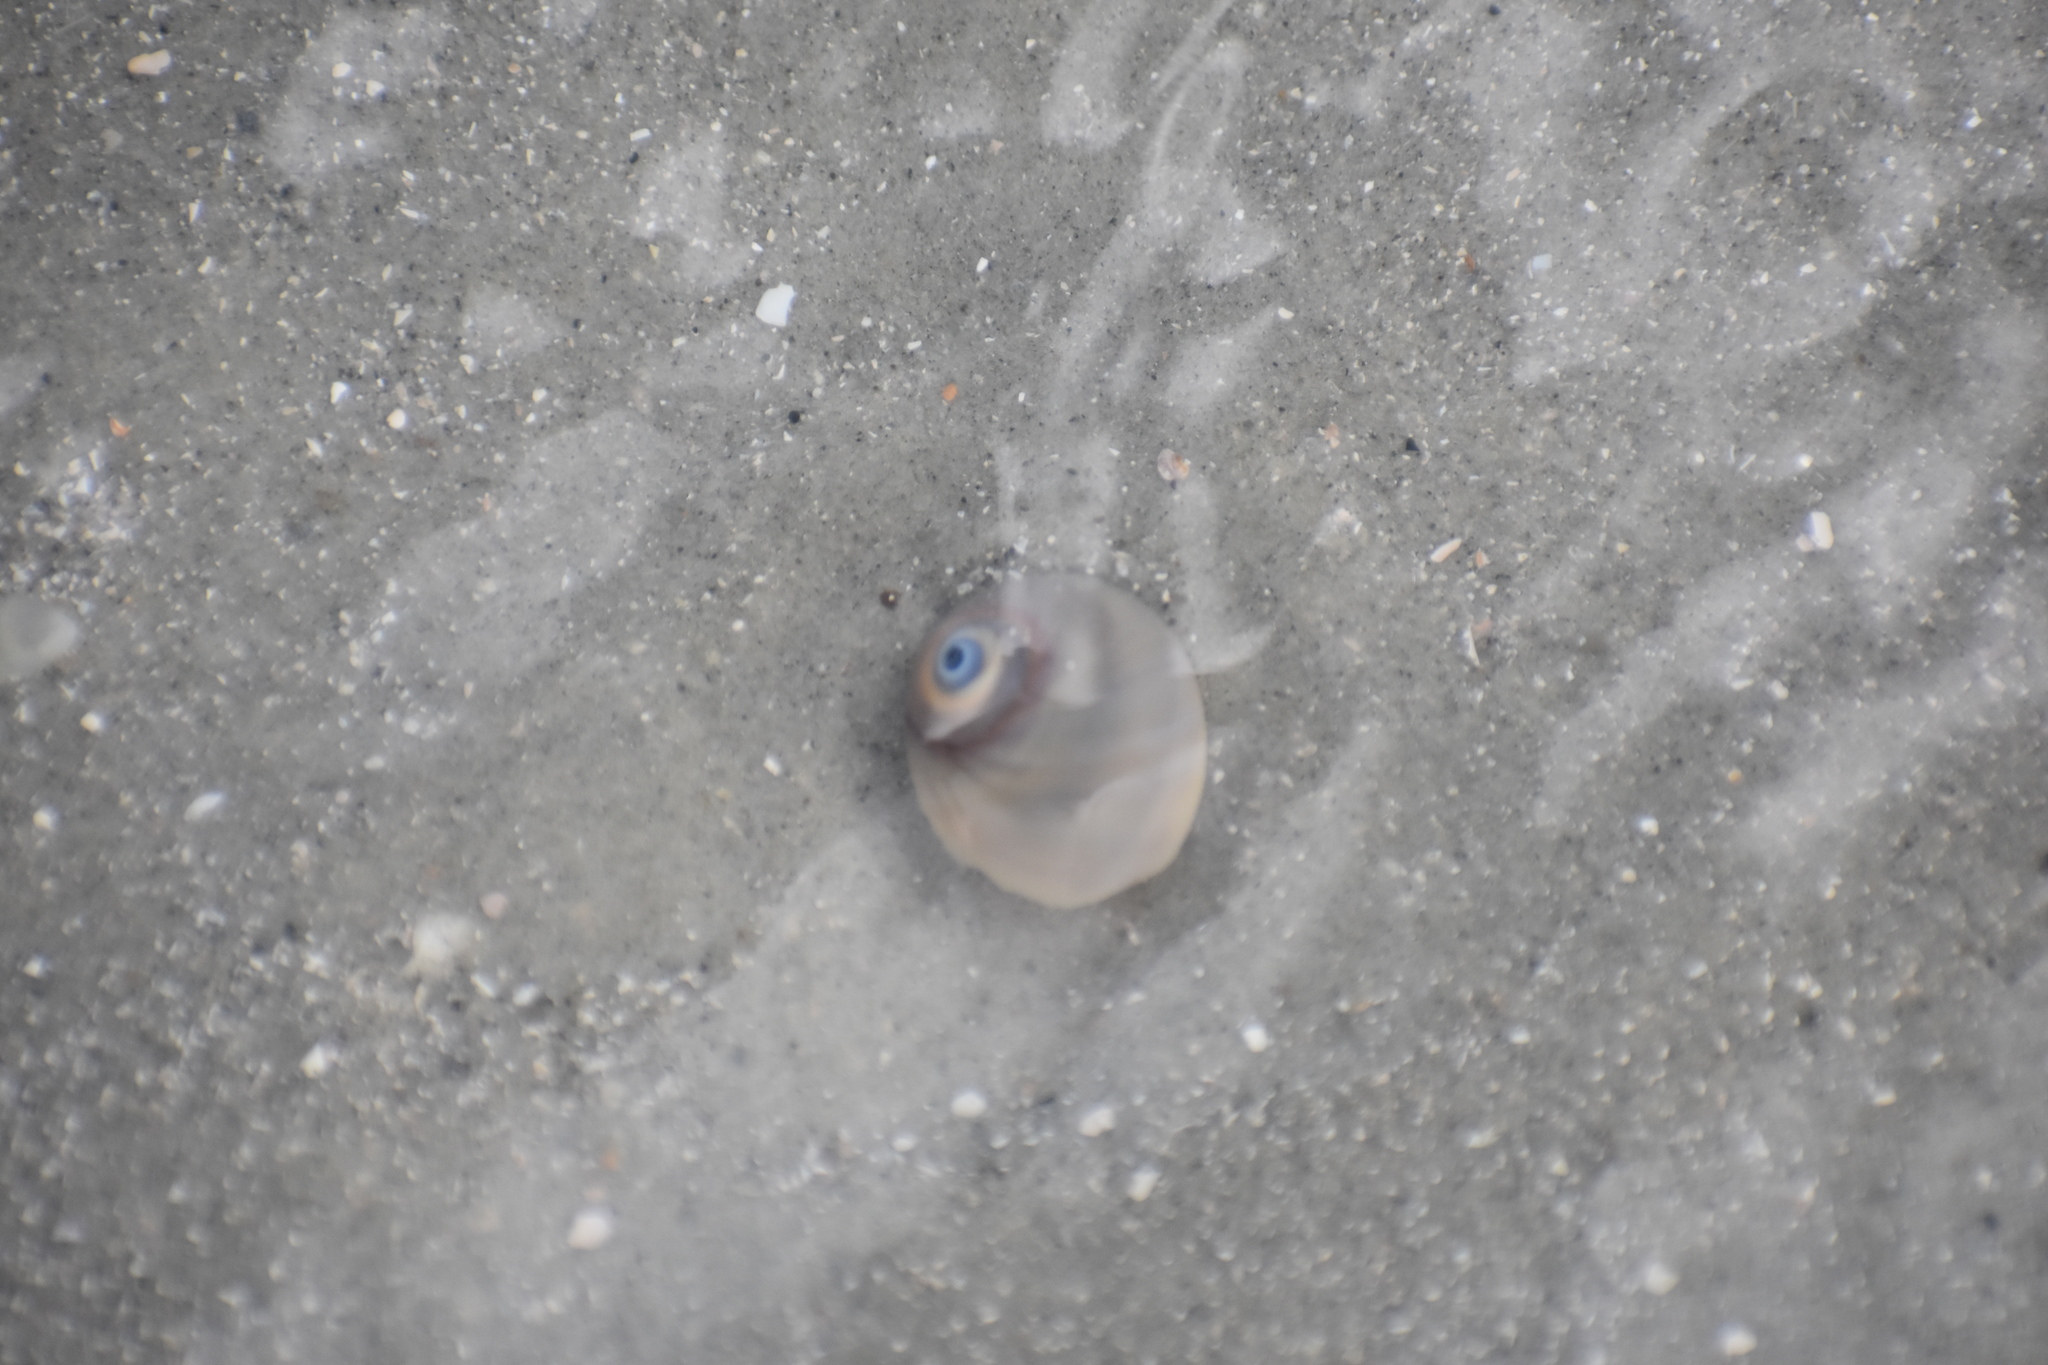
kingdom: Animalia
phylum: Mollusca
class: Gastropoda
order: Littorinimorpha
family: Naticidae
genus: Neverita
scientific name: Neverita duplicata
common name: Lobed moonsnail
